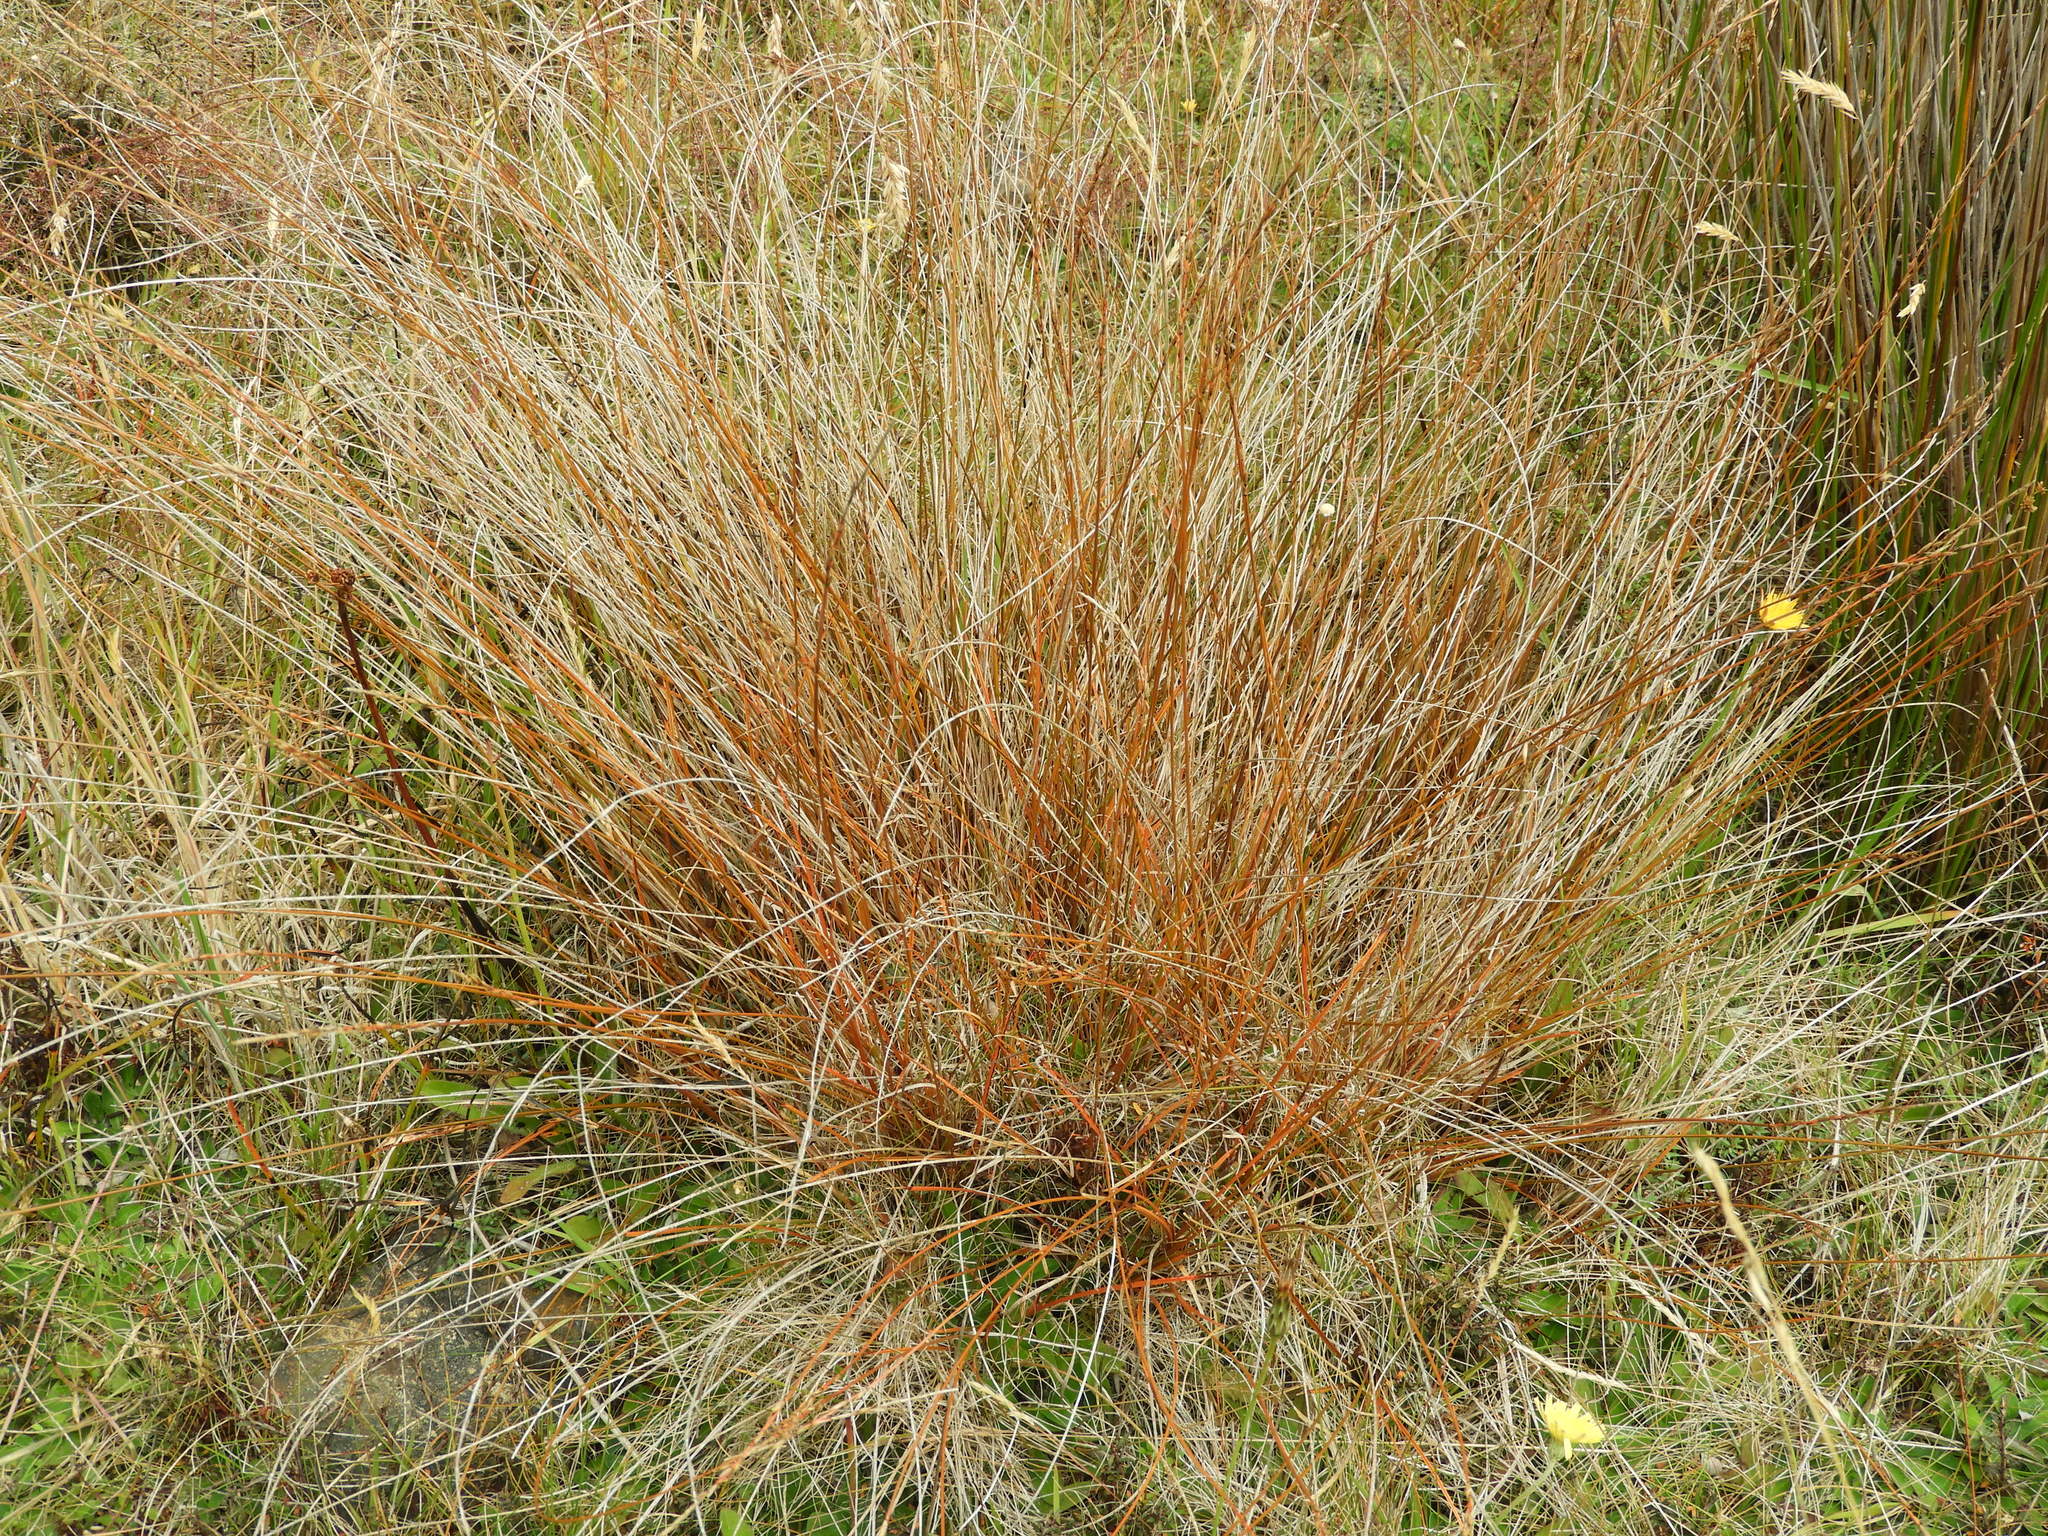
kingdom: Plantae
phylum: Tracheophyta
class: Liliopsida
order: Poales
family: Cyperaceae
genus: Carex
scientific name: Carex punicea
